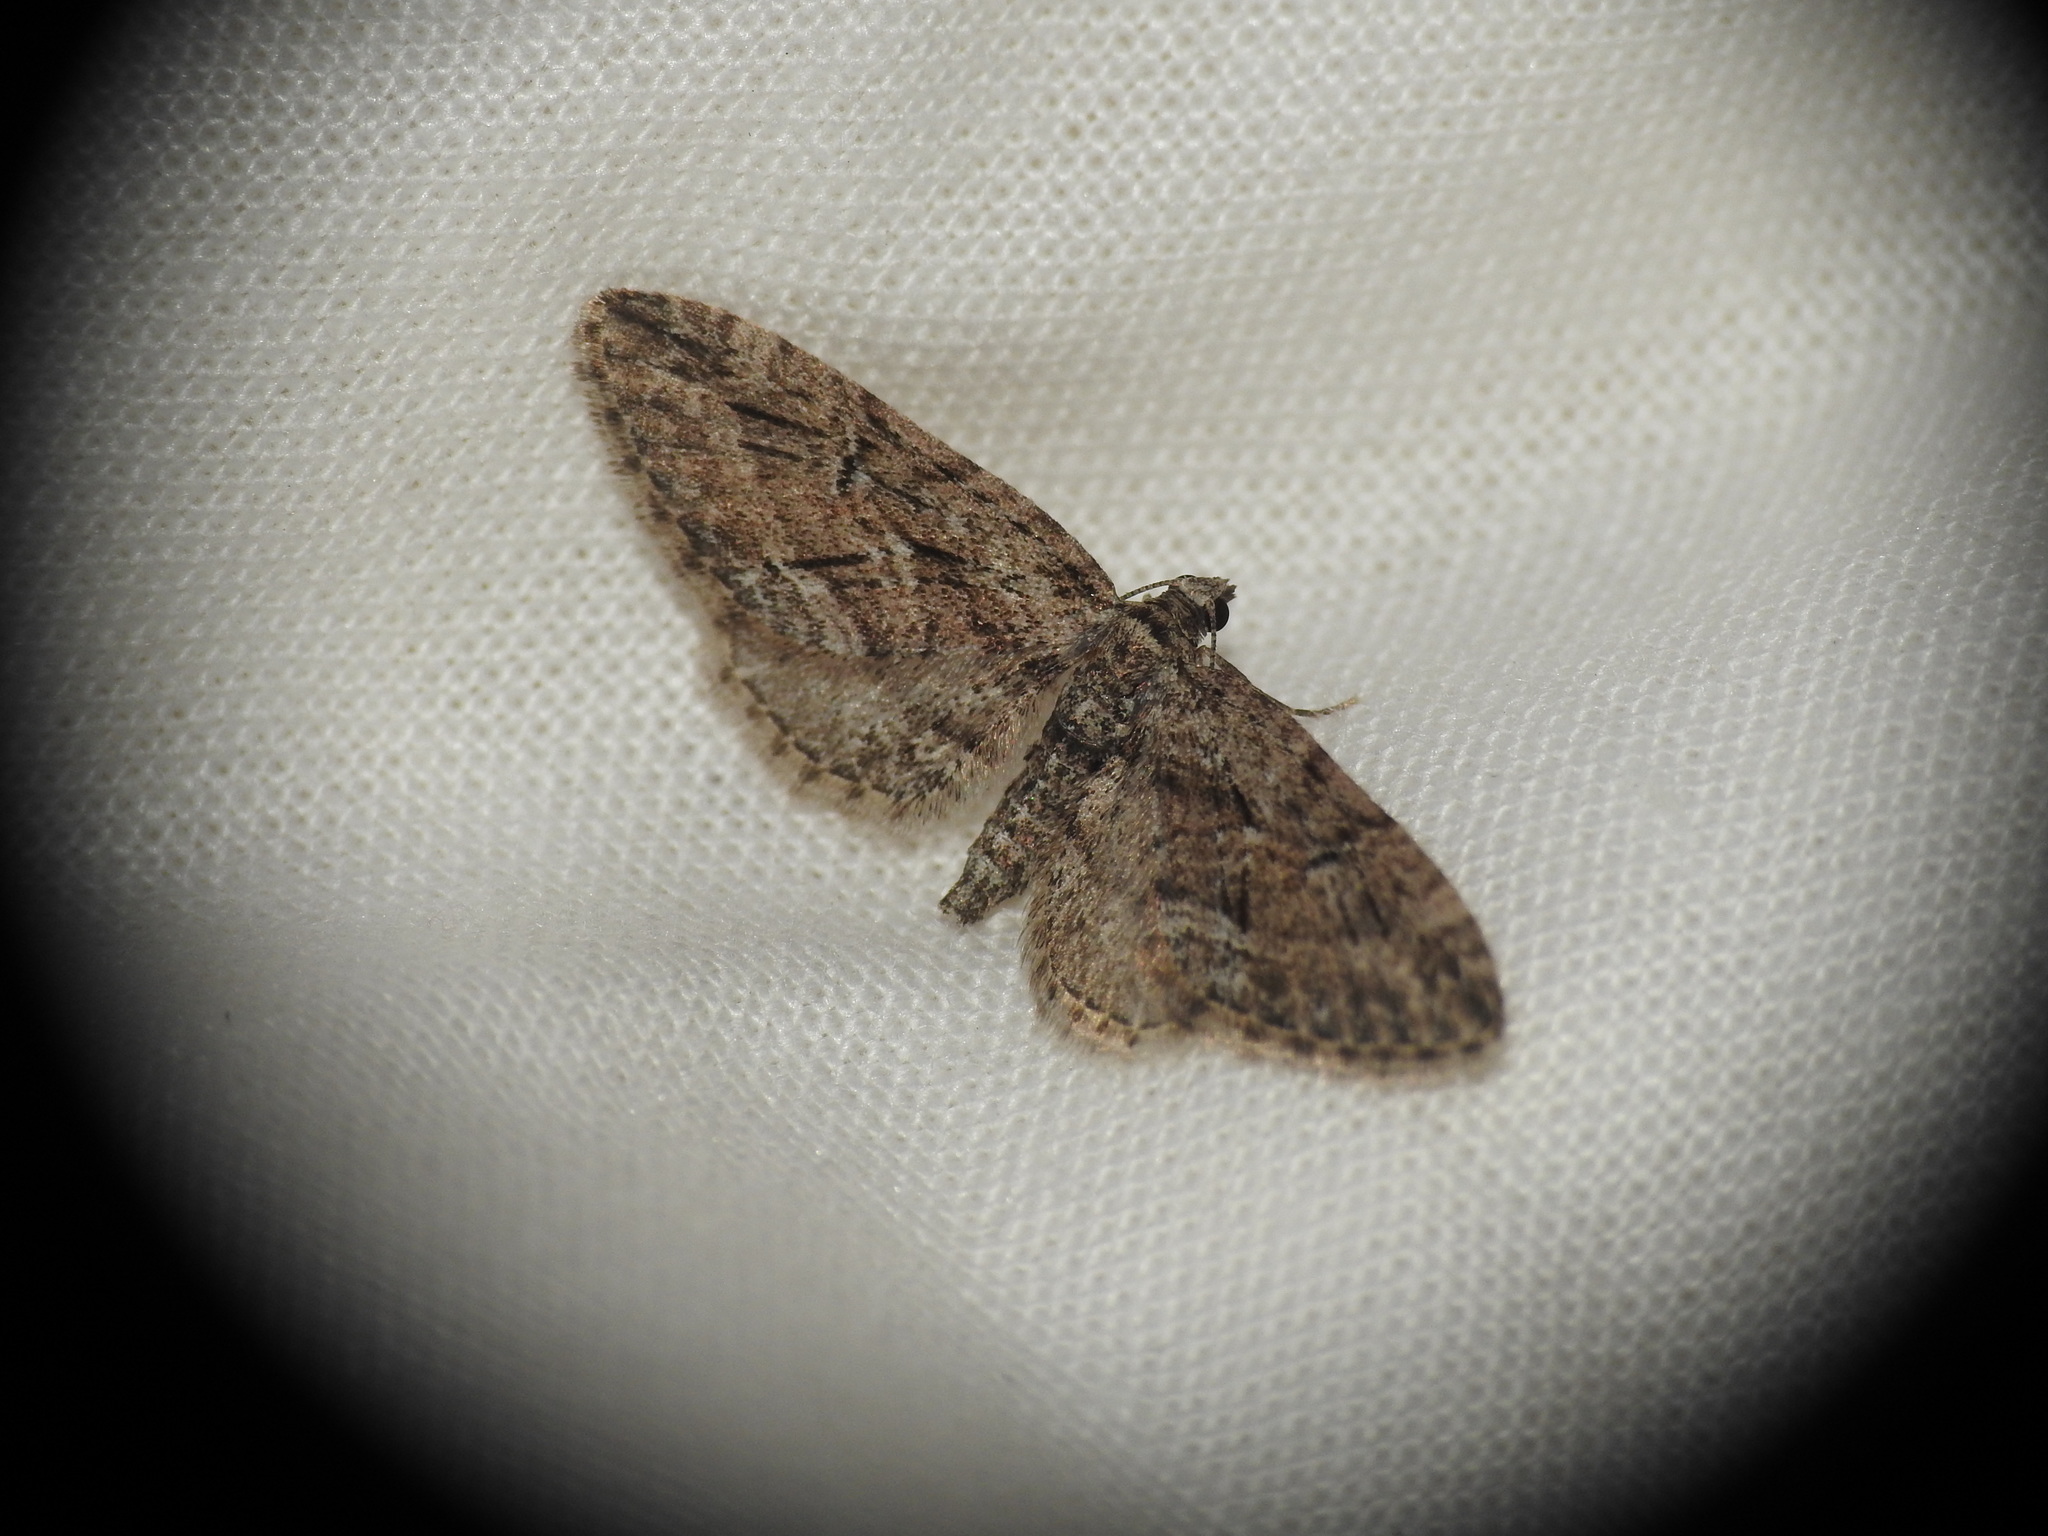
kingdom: Animalia
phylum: Arthropoda
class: Insecta
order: Lepidoptera
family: Geometridae
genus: Eupithecia
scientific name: Eupithecia oxycedrata
